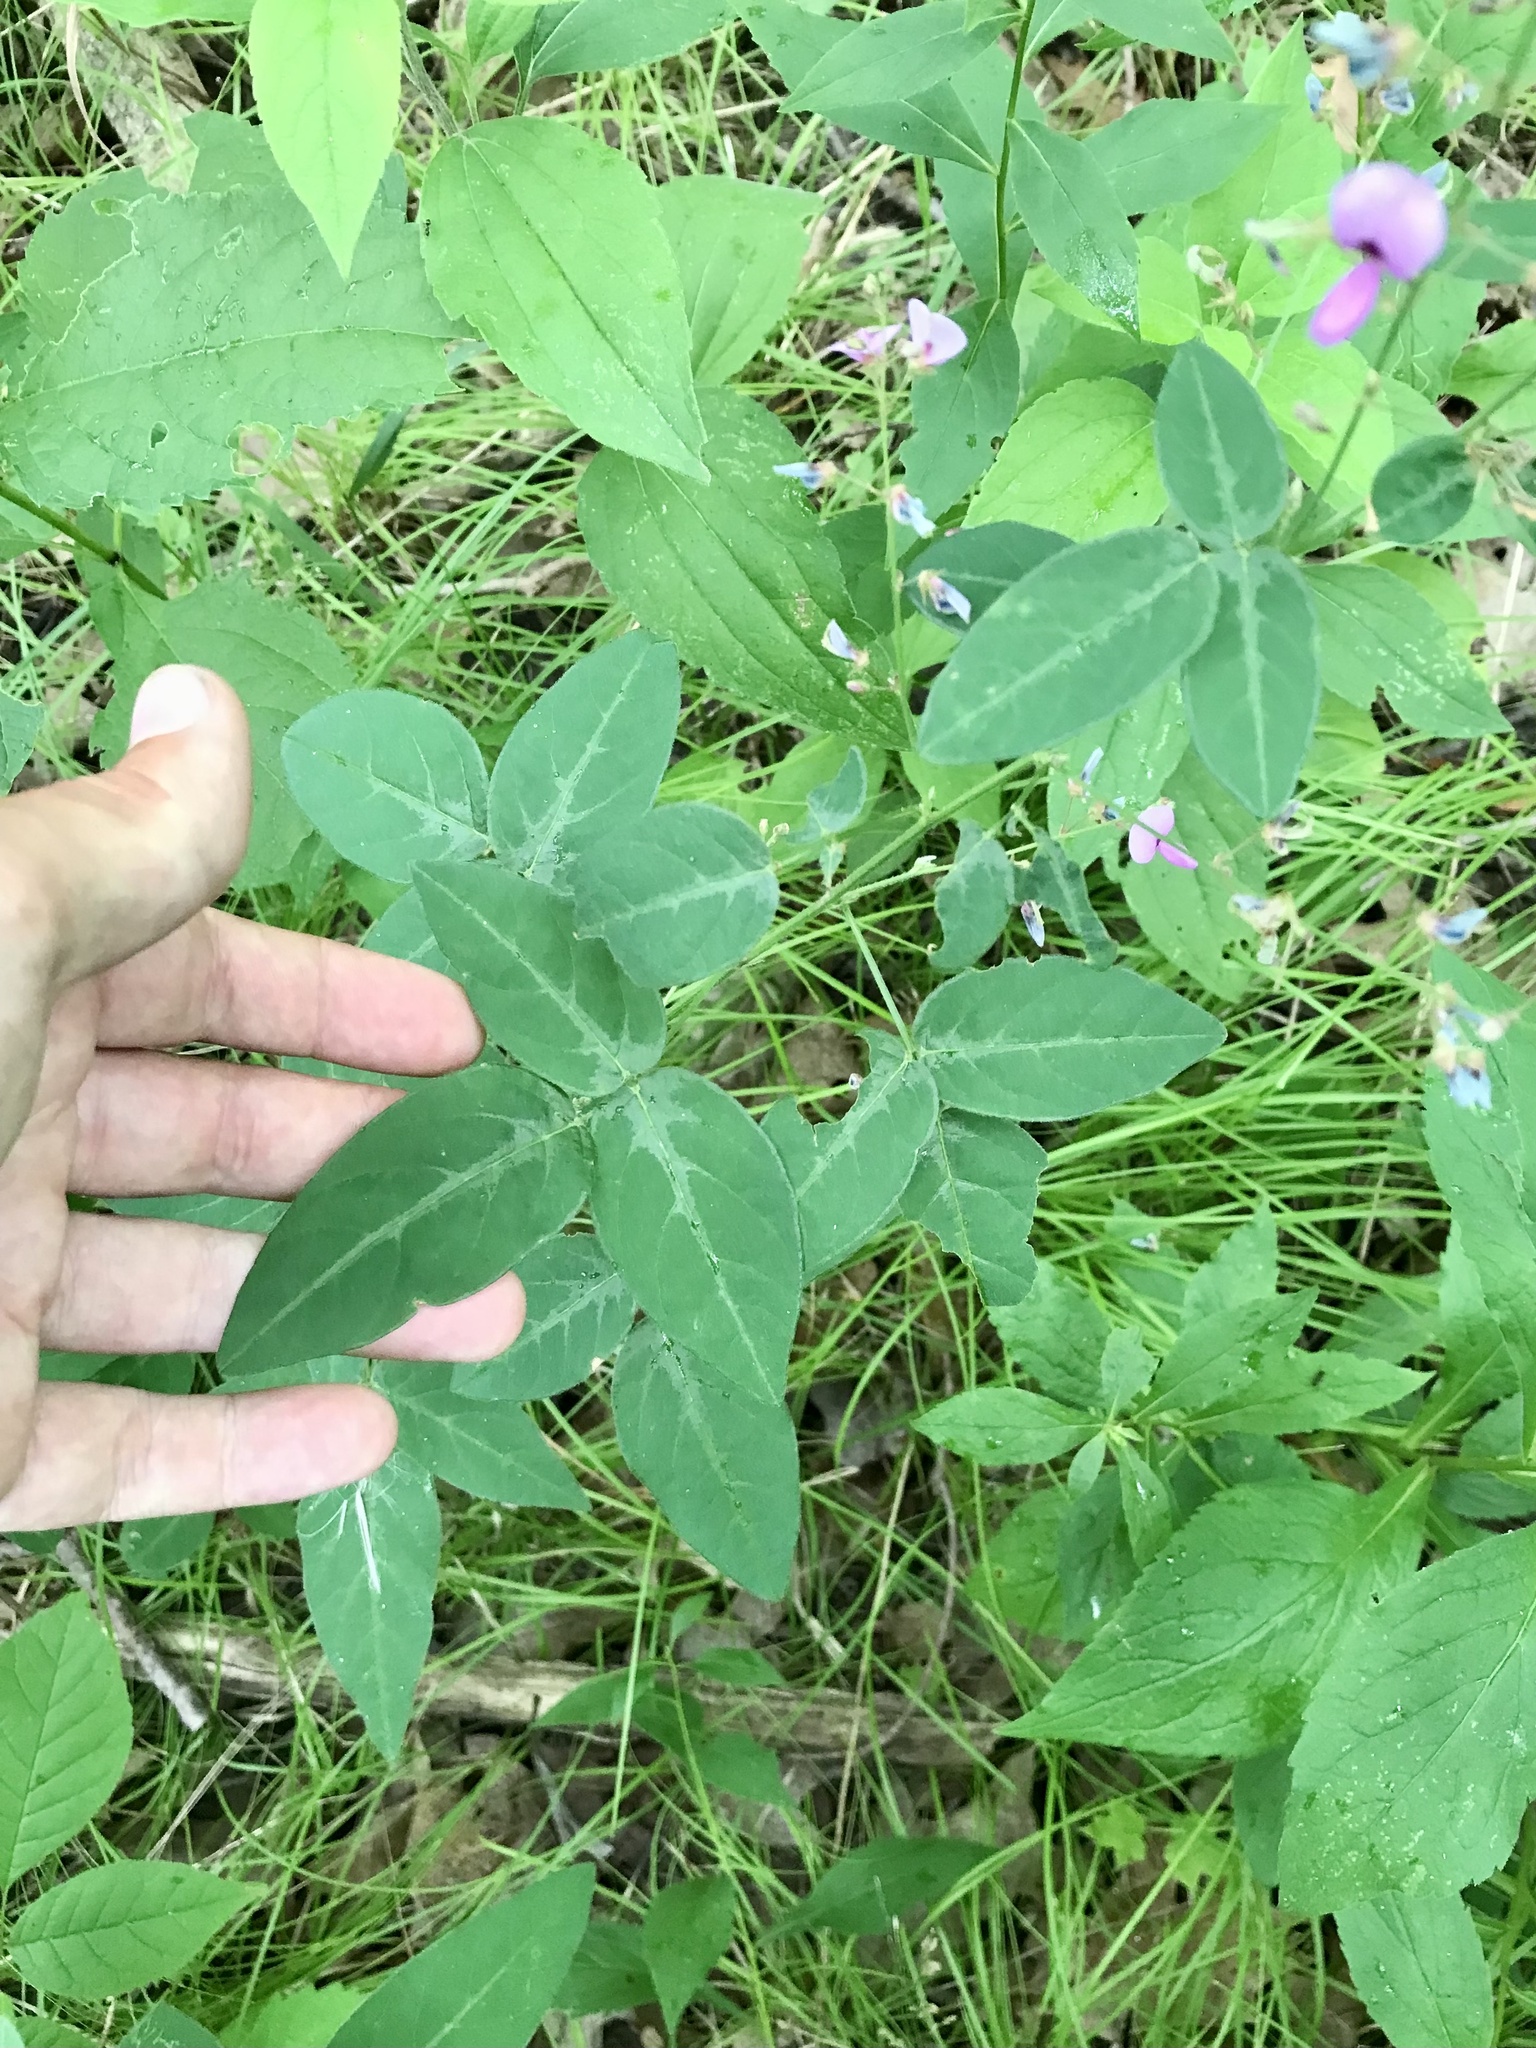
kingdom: Plantae
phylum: Tracheophyta
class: Magnoliopsida
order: Fabales
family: Fabaceae
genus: Desmodium
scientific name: Desmodium paniculatum
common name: Panicled tick-clover
